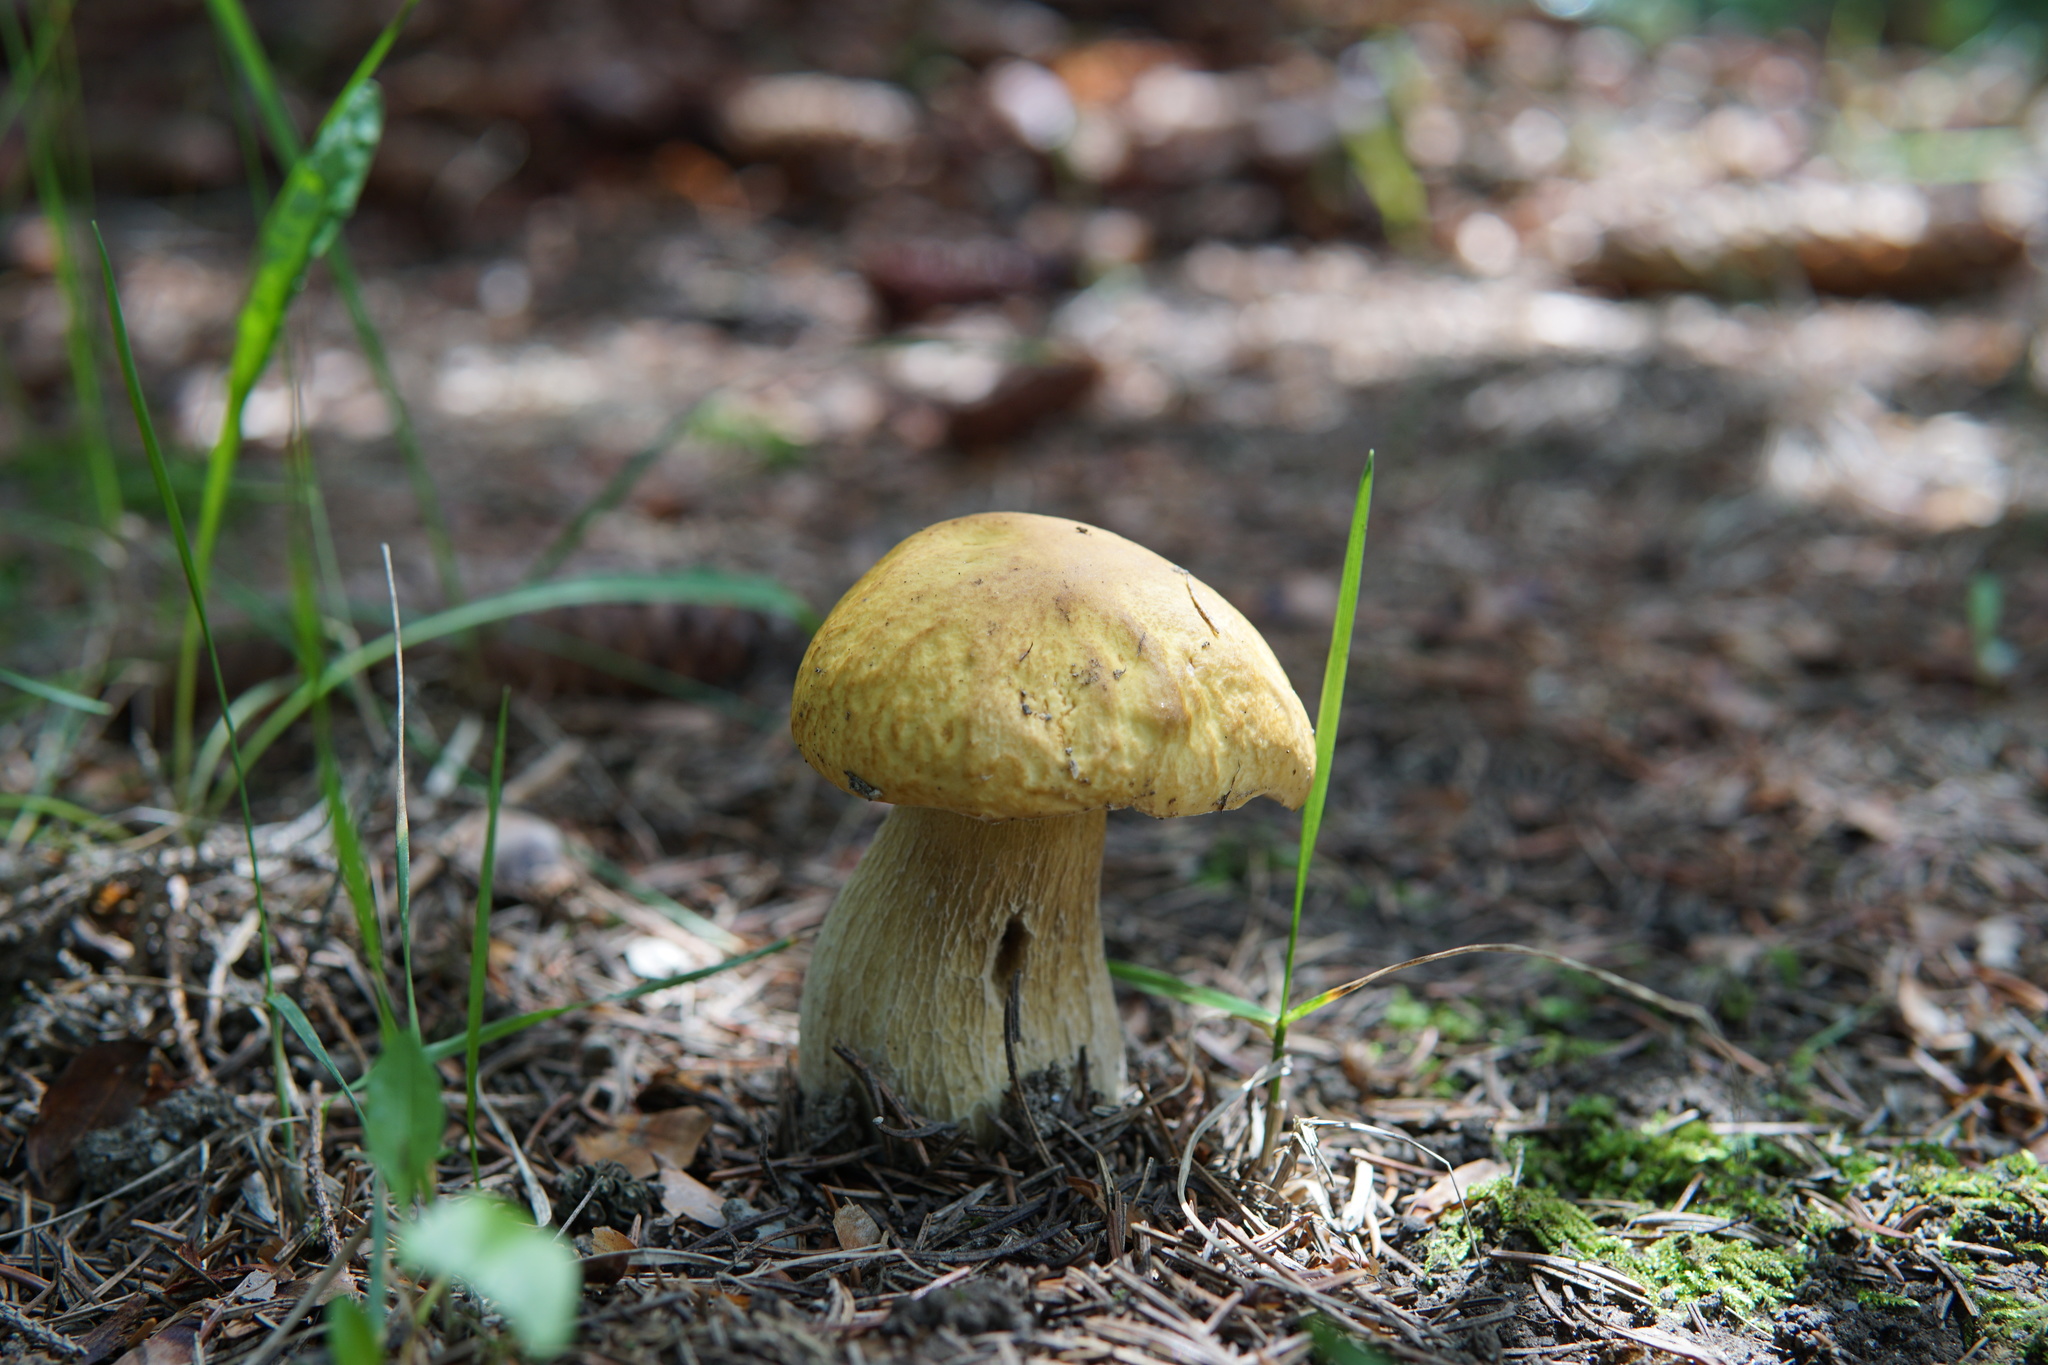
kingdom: Fungi
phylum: Basidiomycota
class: Agaricomycetes
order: Boletales
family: Boletaceae
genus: Boletus
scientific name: Boletus chippewaensis
